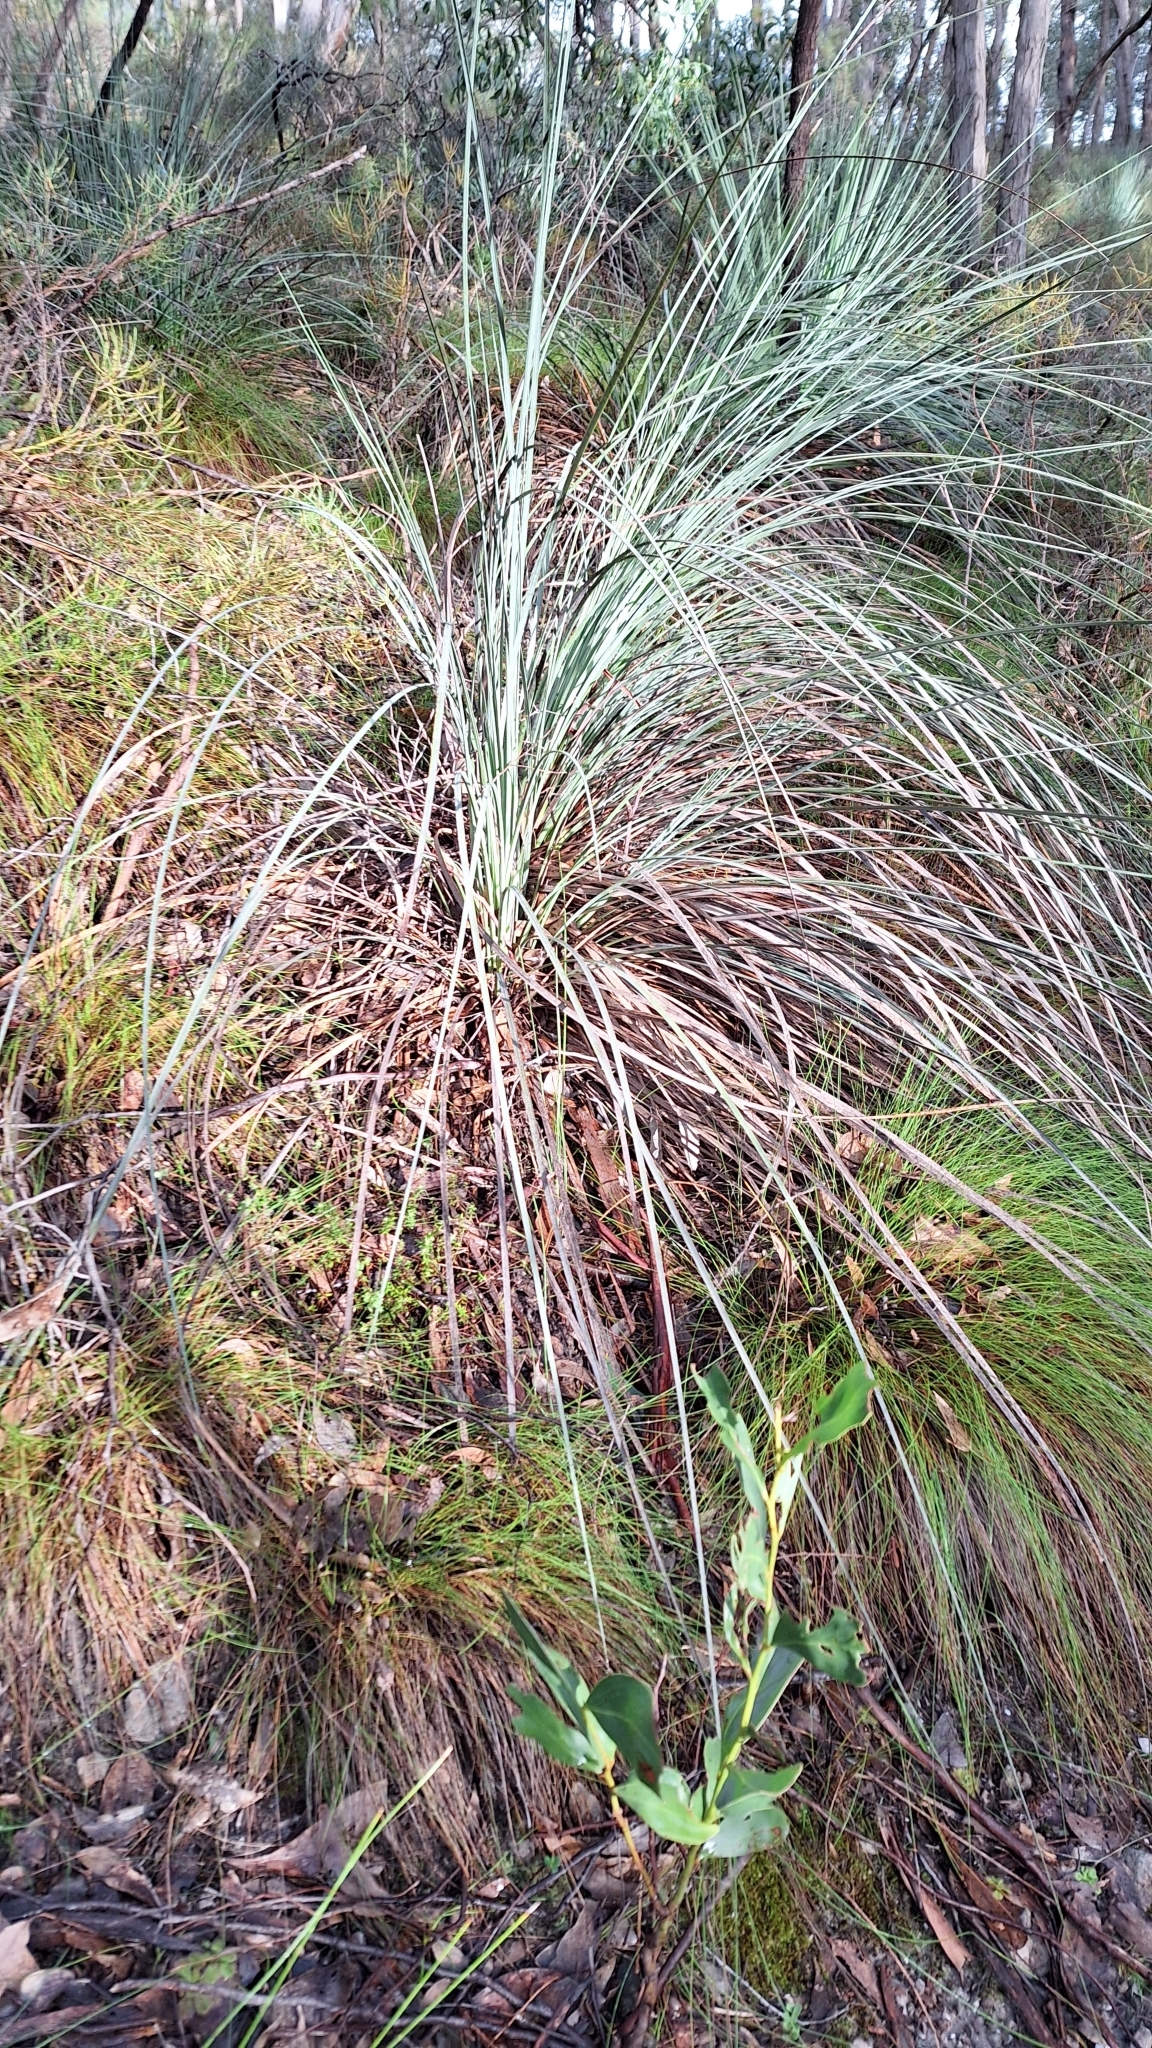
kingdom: Plantae
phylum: Tracheophyta
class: Liliopsida
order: Asparagales
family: Asphodelaceae
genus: Xanthorrhoea
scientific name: Xanthorrhoea semiplana
